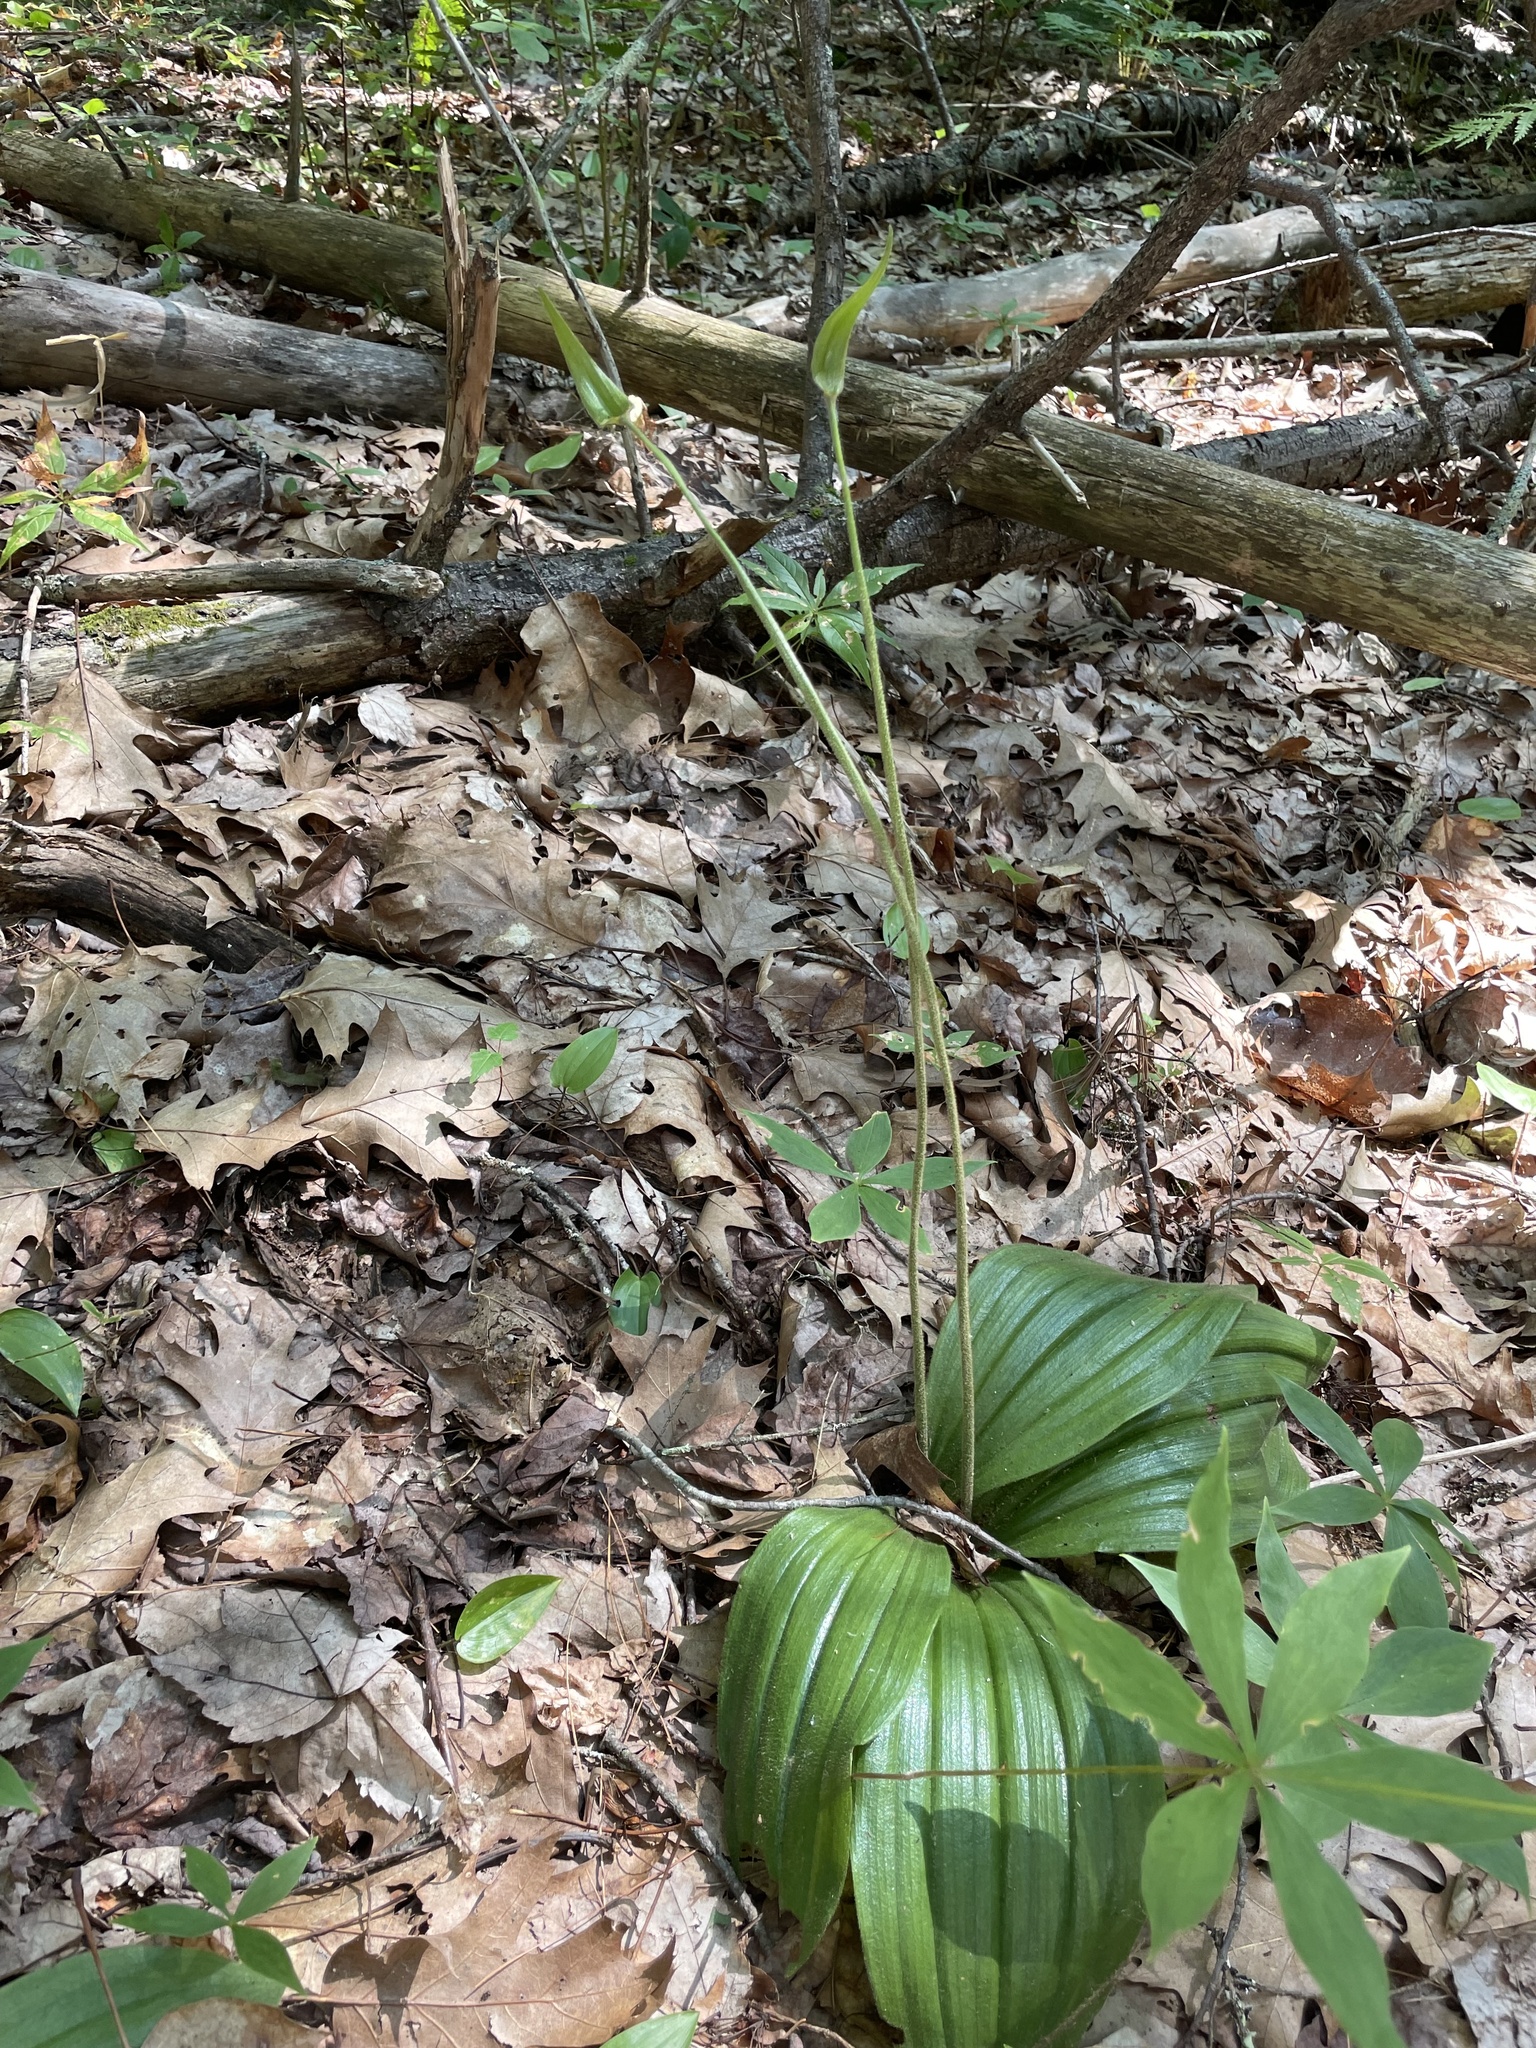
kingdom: Plantae
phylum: Tracheophyta
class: Liliopsida
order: Asparagales
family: Orchidaceae
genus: Cypripedium
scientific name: Cypripedium acaule
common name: Pink lady's-slipper
